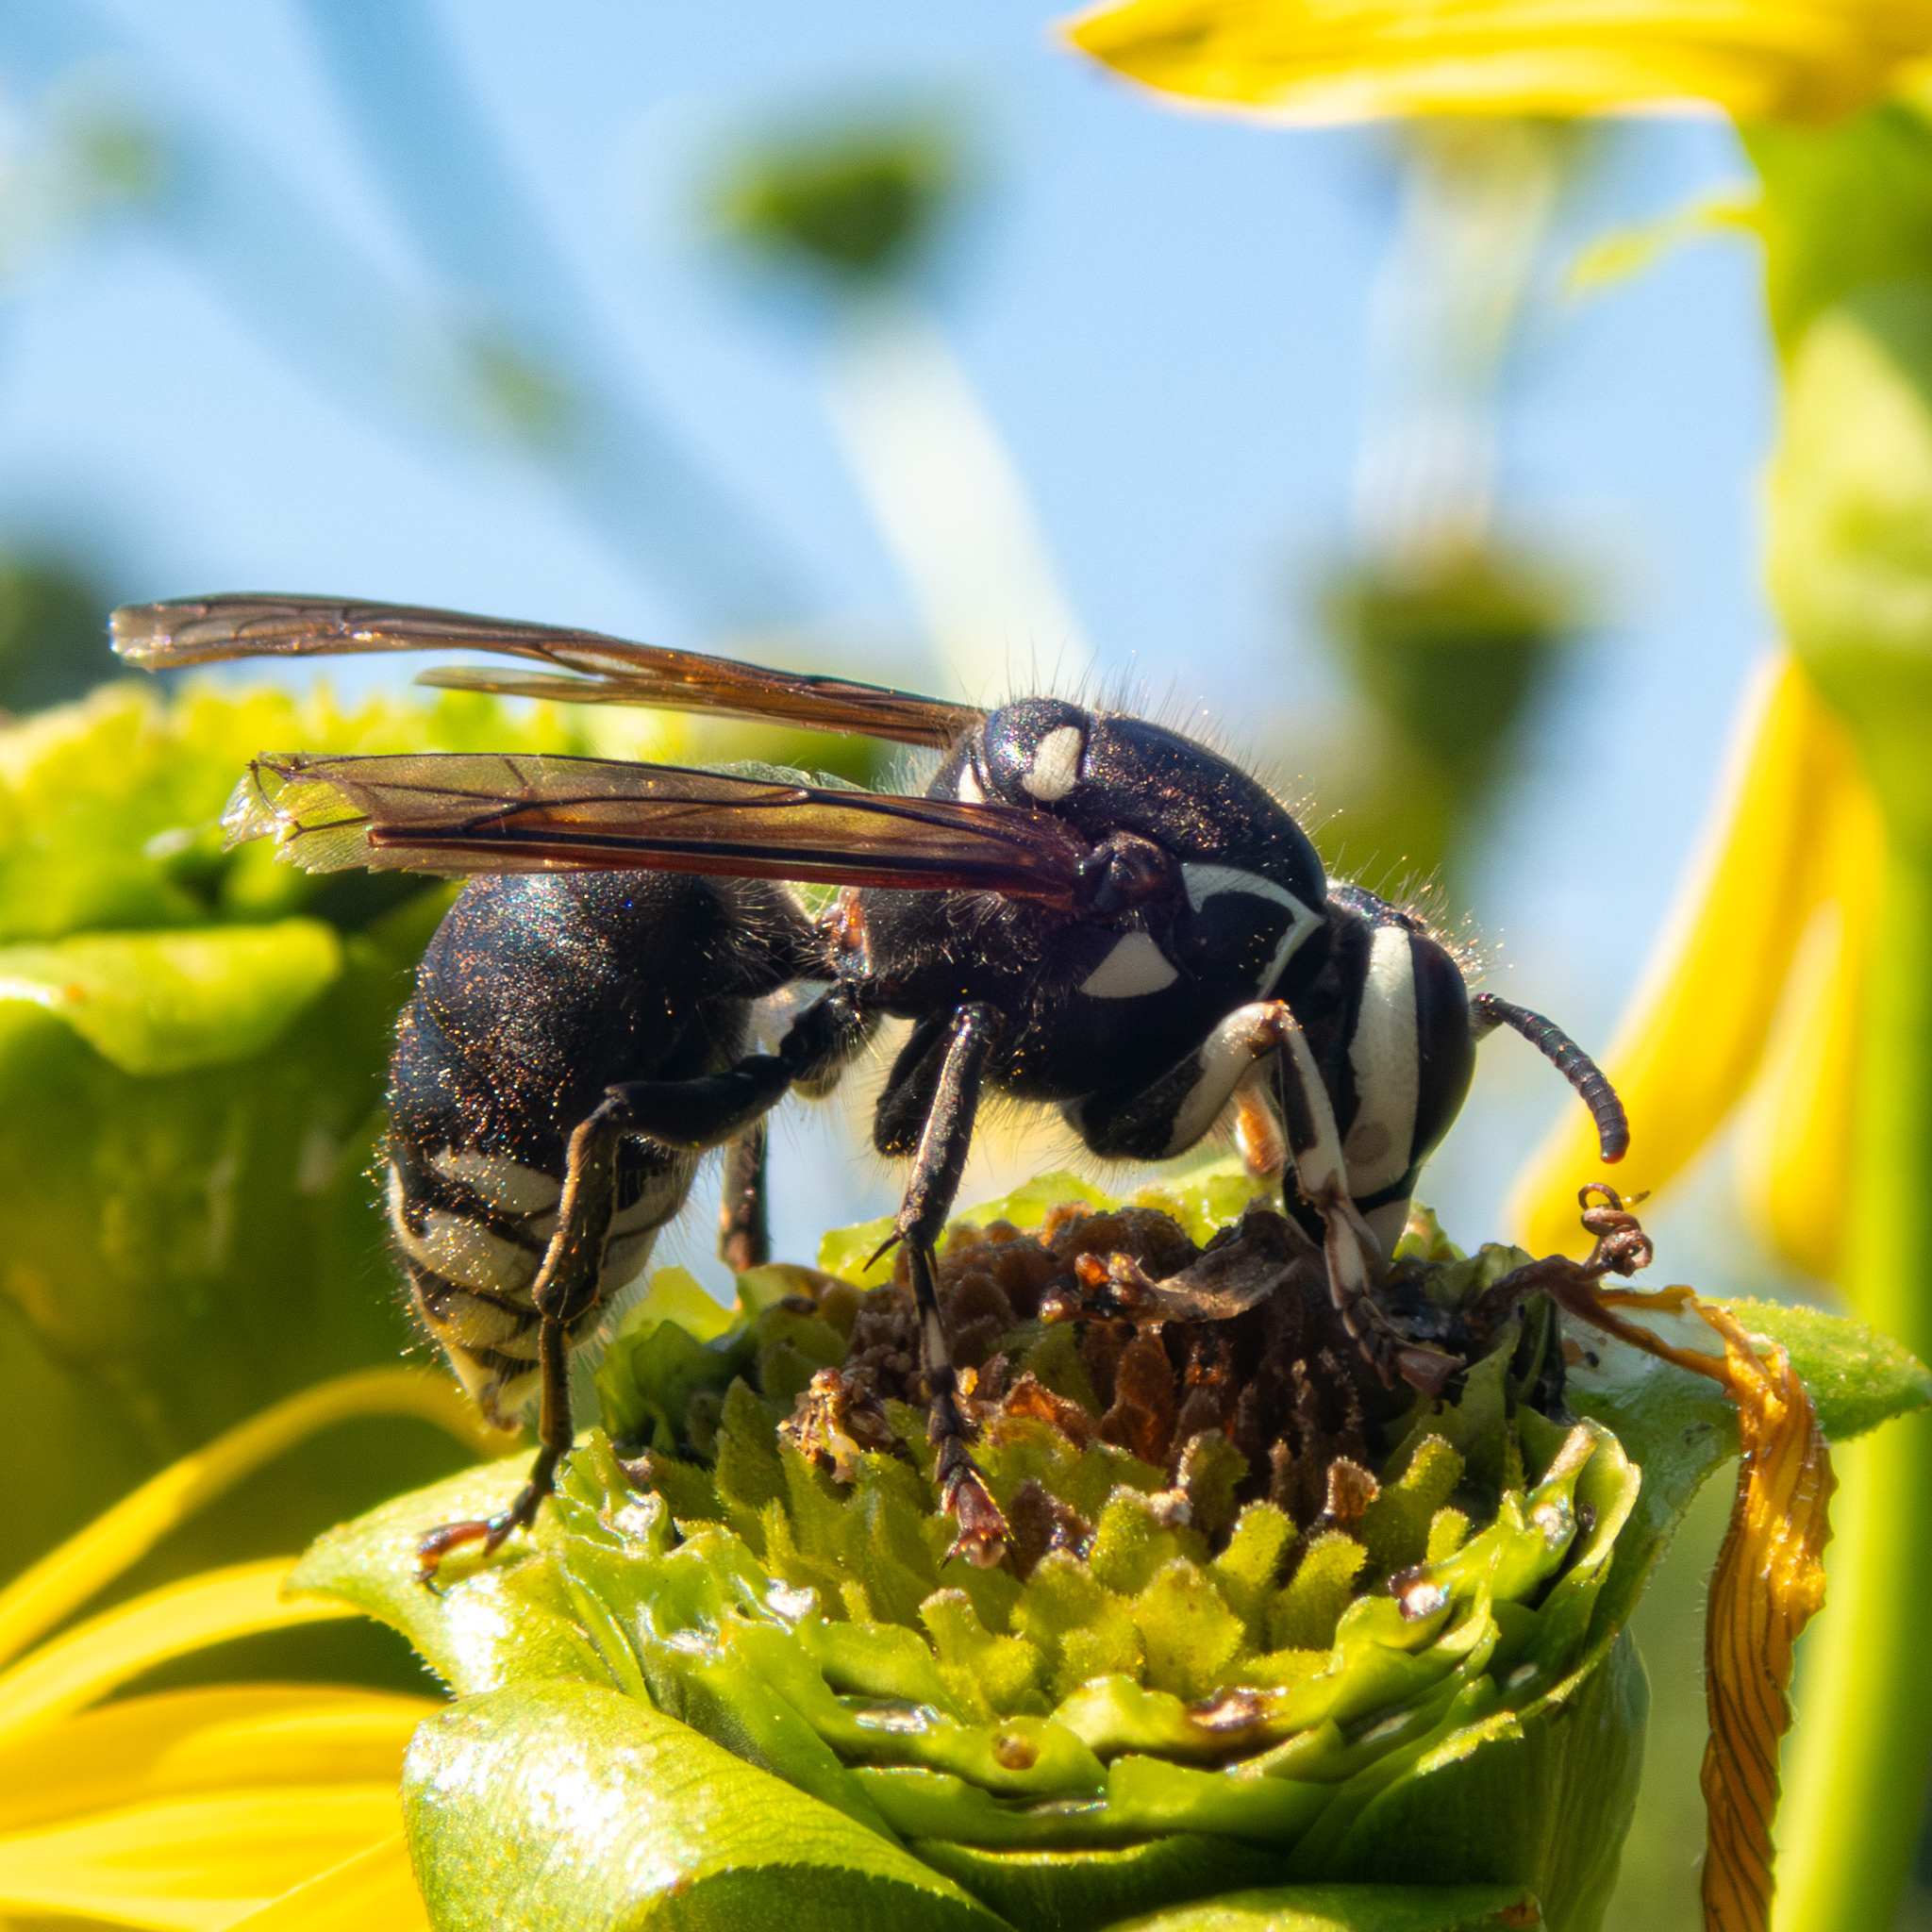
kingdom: Animalia
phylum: Arthropoda
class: Insecta
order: Hymenoptera
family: Vespidae
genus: Dolichovespula
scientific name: Dolichovespula maculata
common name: Bald-faced hornet
